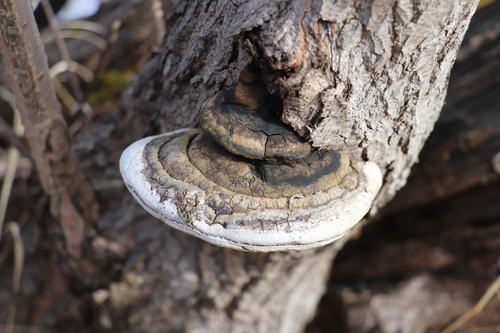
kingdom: Fungi
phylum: Basidiomycota
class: Agaricomycetes
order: Hymenochaetales
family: Hymenochaetaceae
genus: Phellinus
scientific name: Phellinus igniarius
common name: Willow bracket
